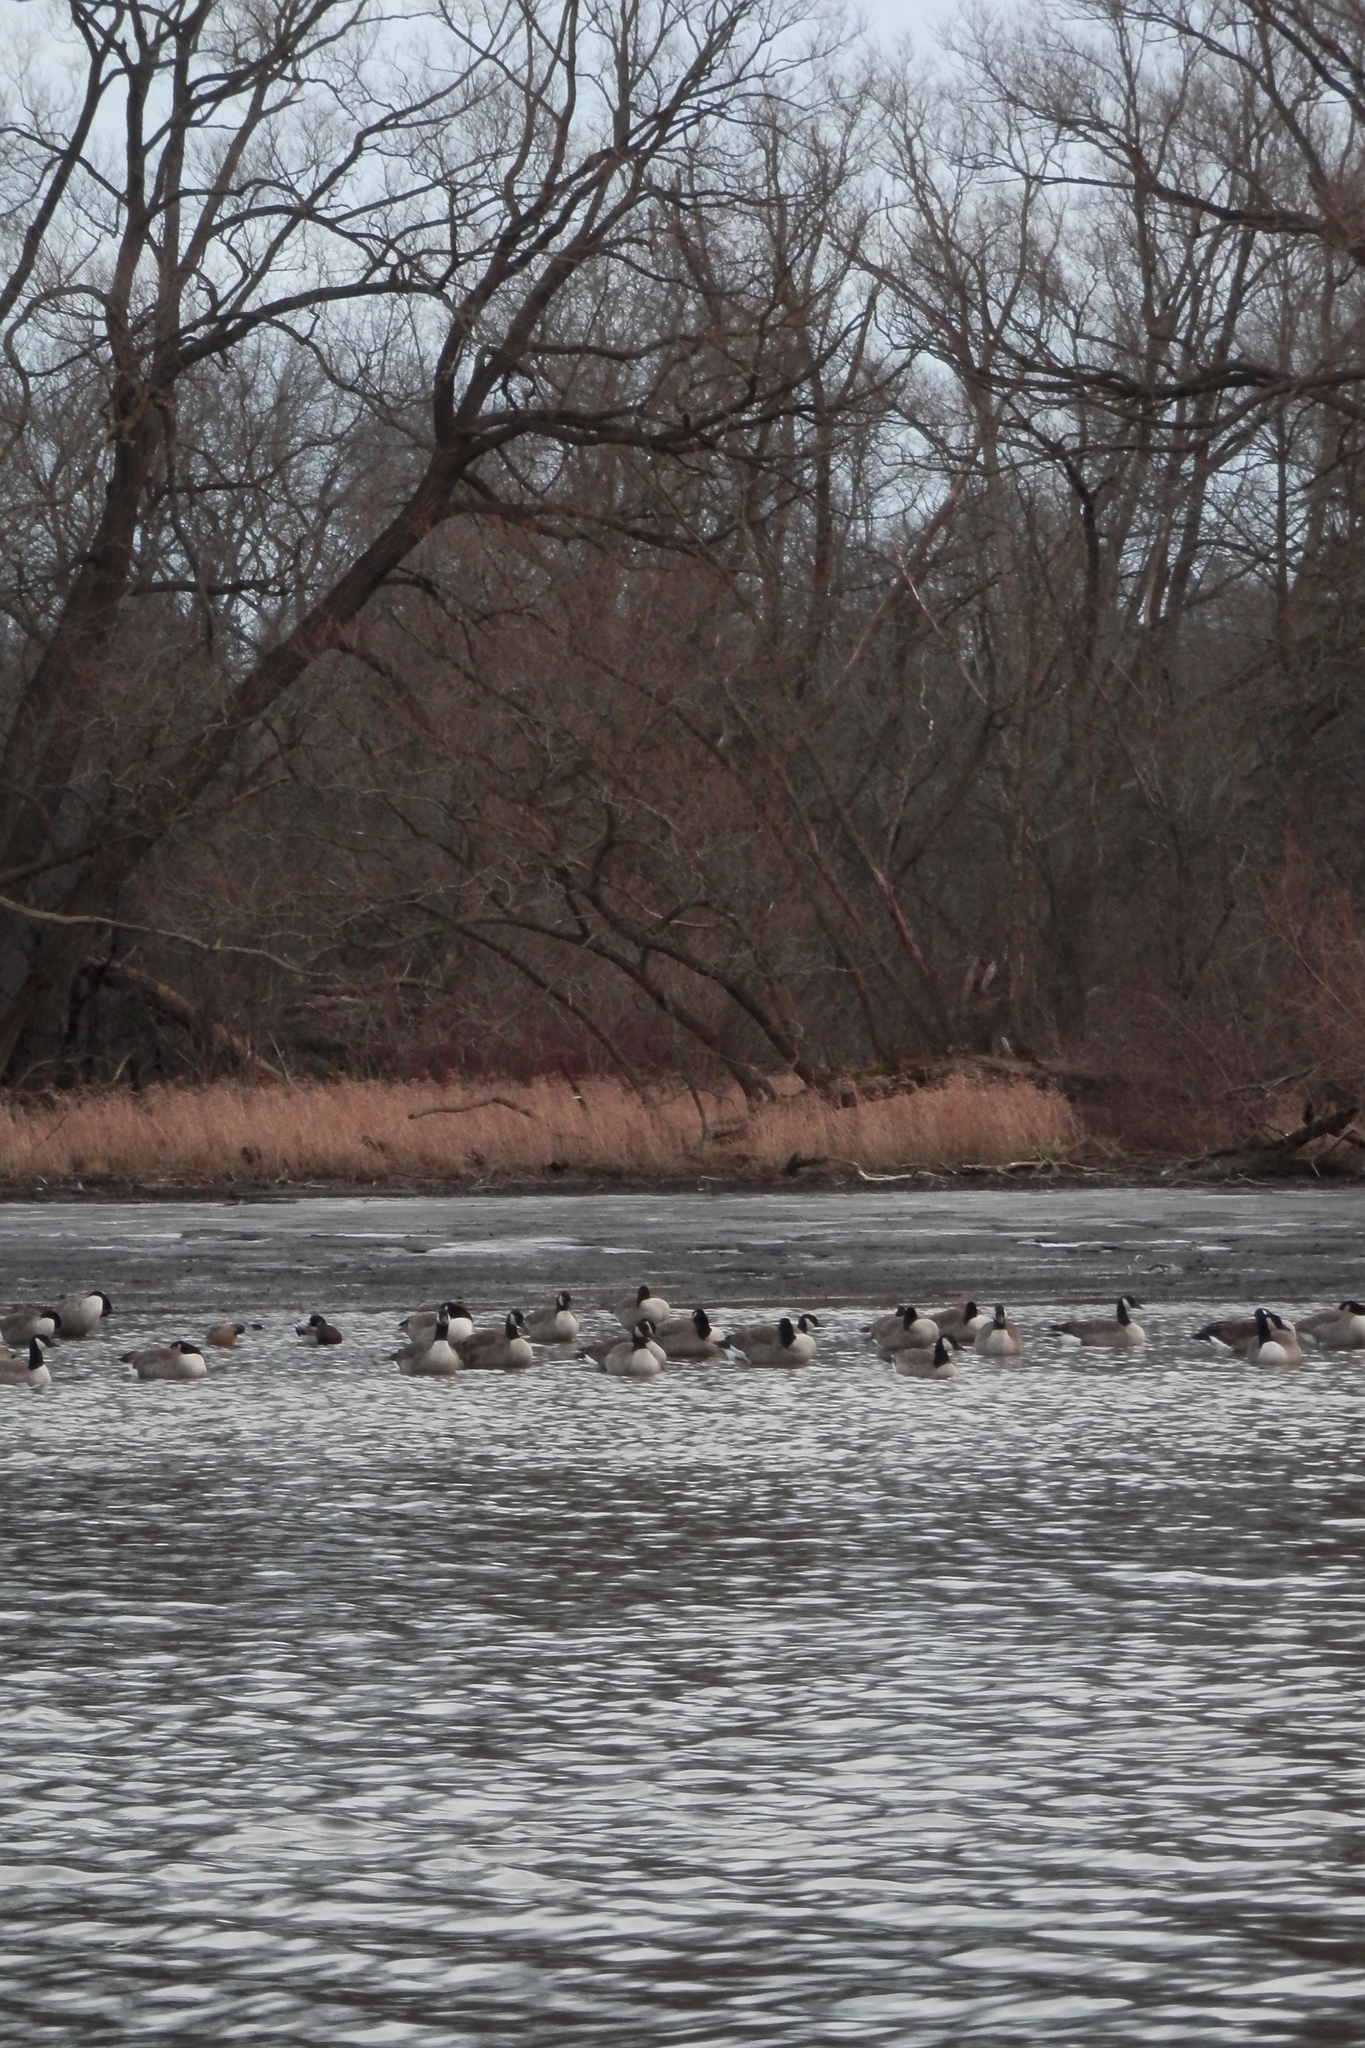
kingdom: Animalia
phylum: Chordata
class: Aves
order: Anseriformes
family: Anatidae
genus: Branta
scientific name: Branta canadensis
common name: Canada goose
